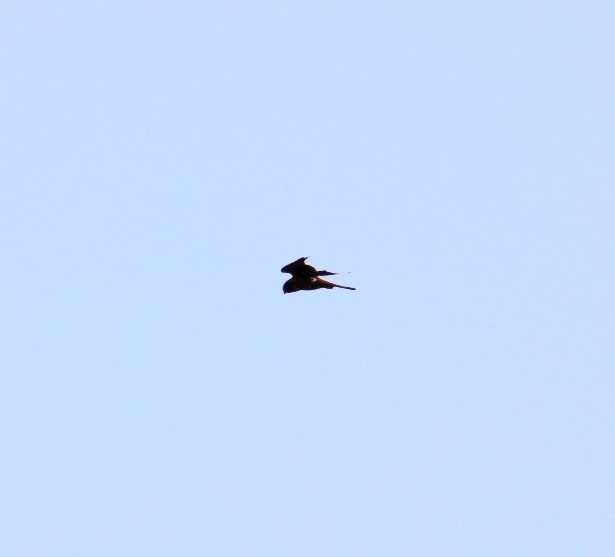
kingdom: Animalia
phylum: Chordata
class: Aves
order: Falconiformes
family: Falconidae
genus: Falco
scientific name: Falco sparverius
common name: American kestrel
